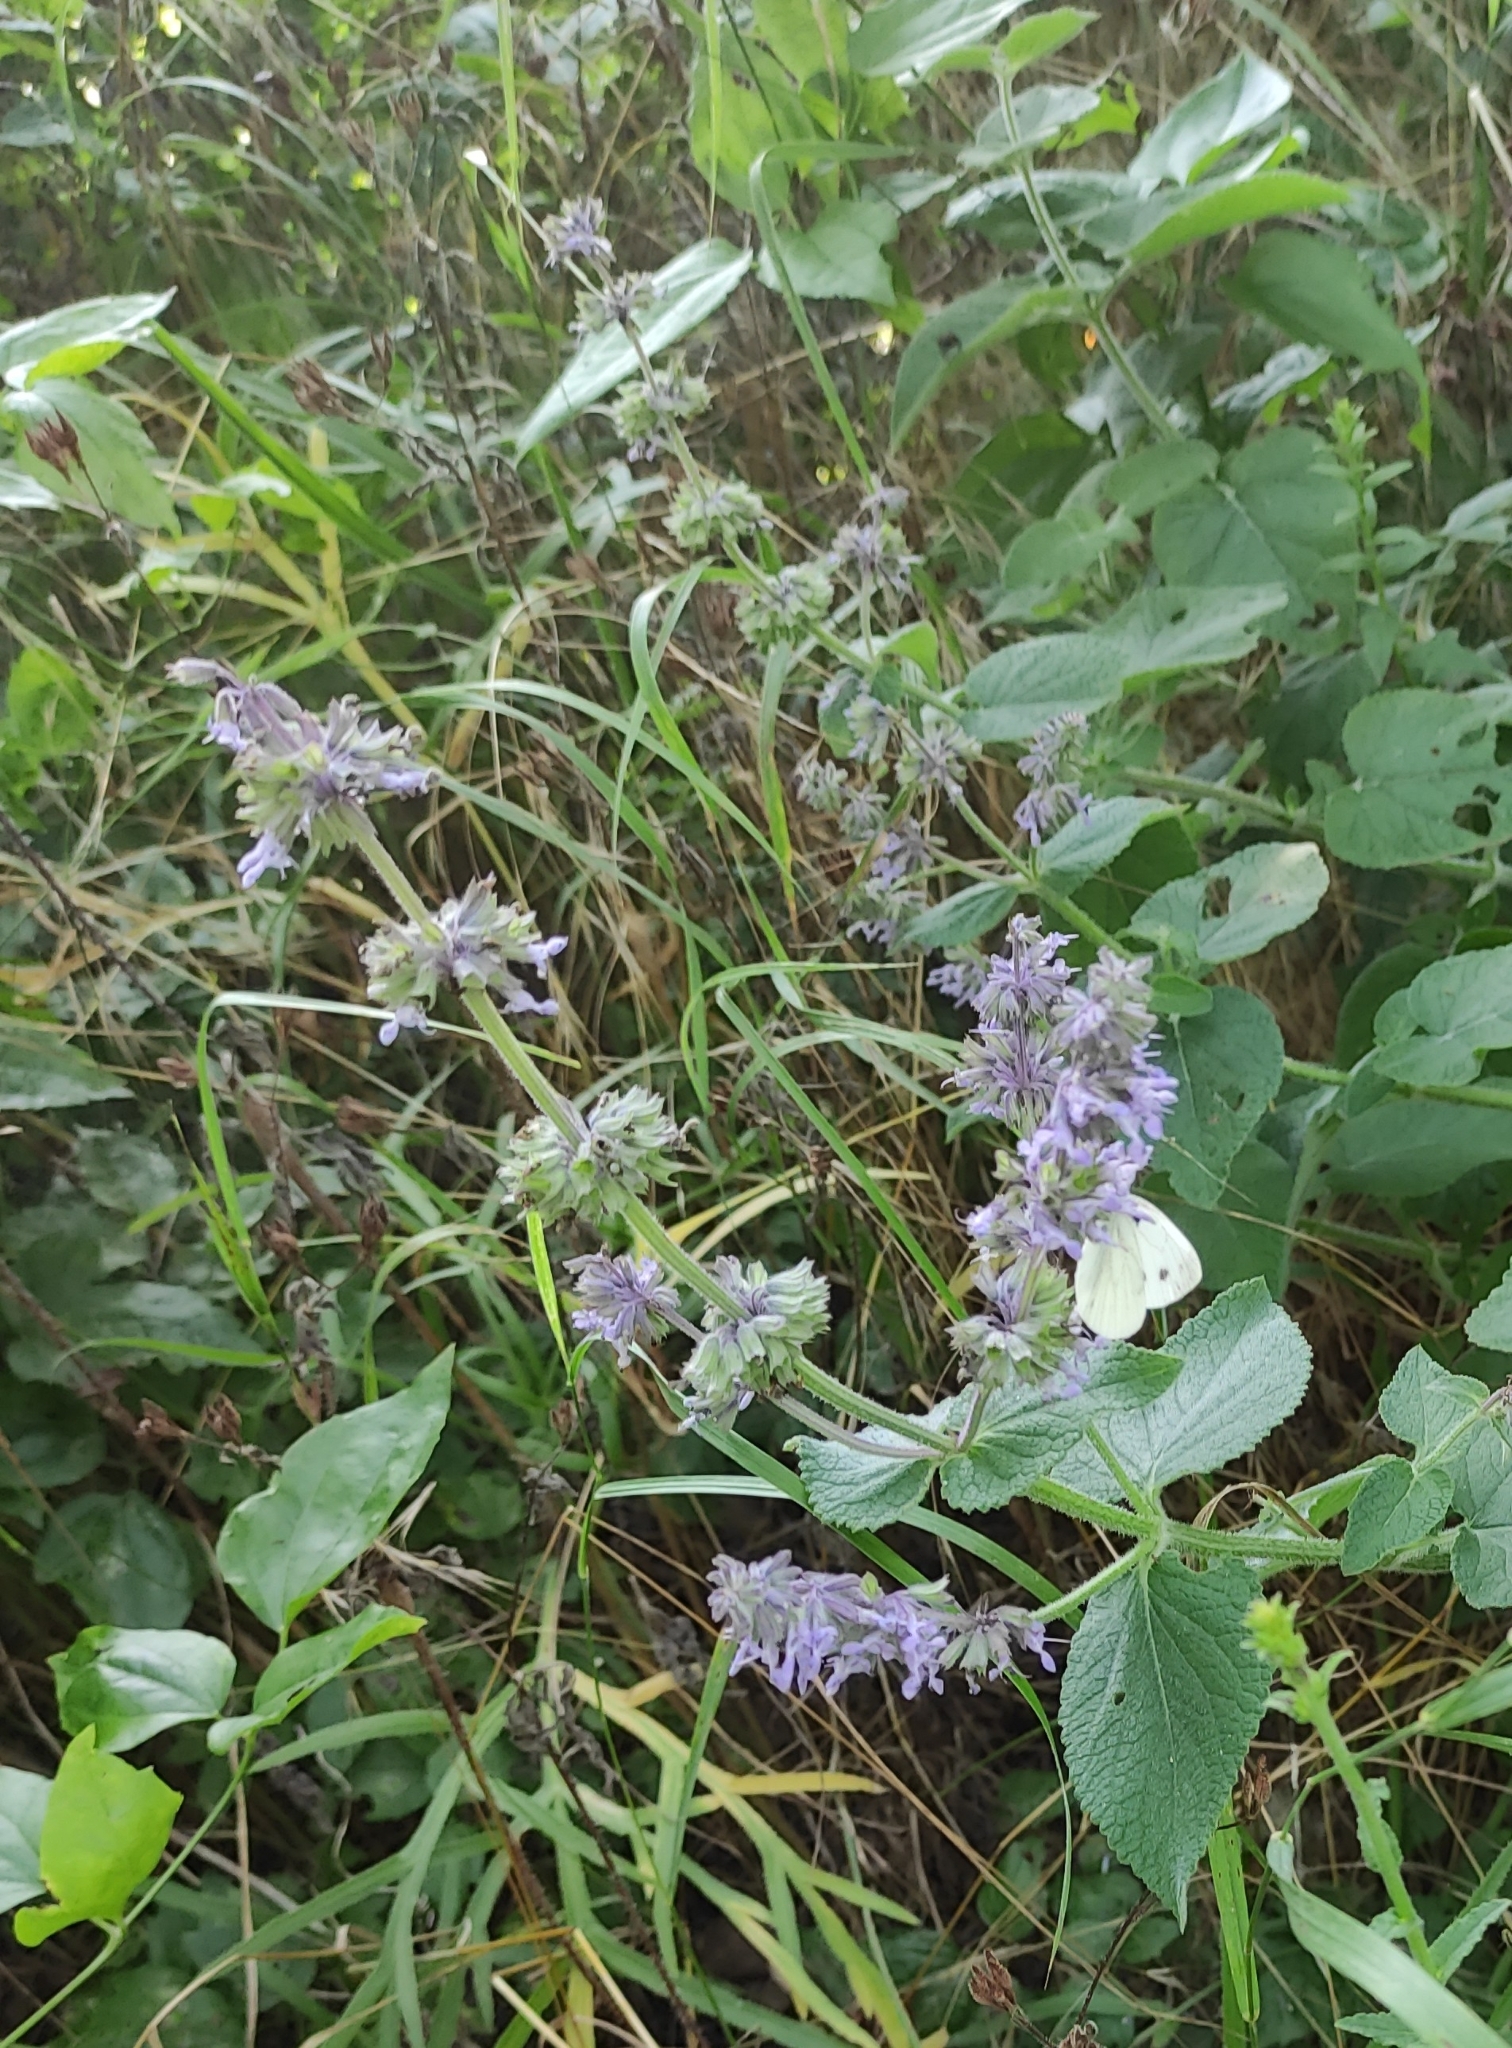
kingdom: Plantae
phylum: Tracheophyta
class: Magnoliopsida
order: Lamiales
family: Lamiaceae
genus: Salvia
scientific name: Salvia verticillata
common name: Whorled clary
